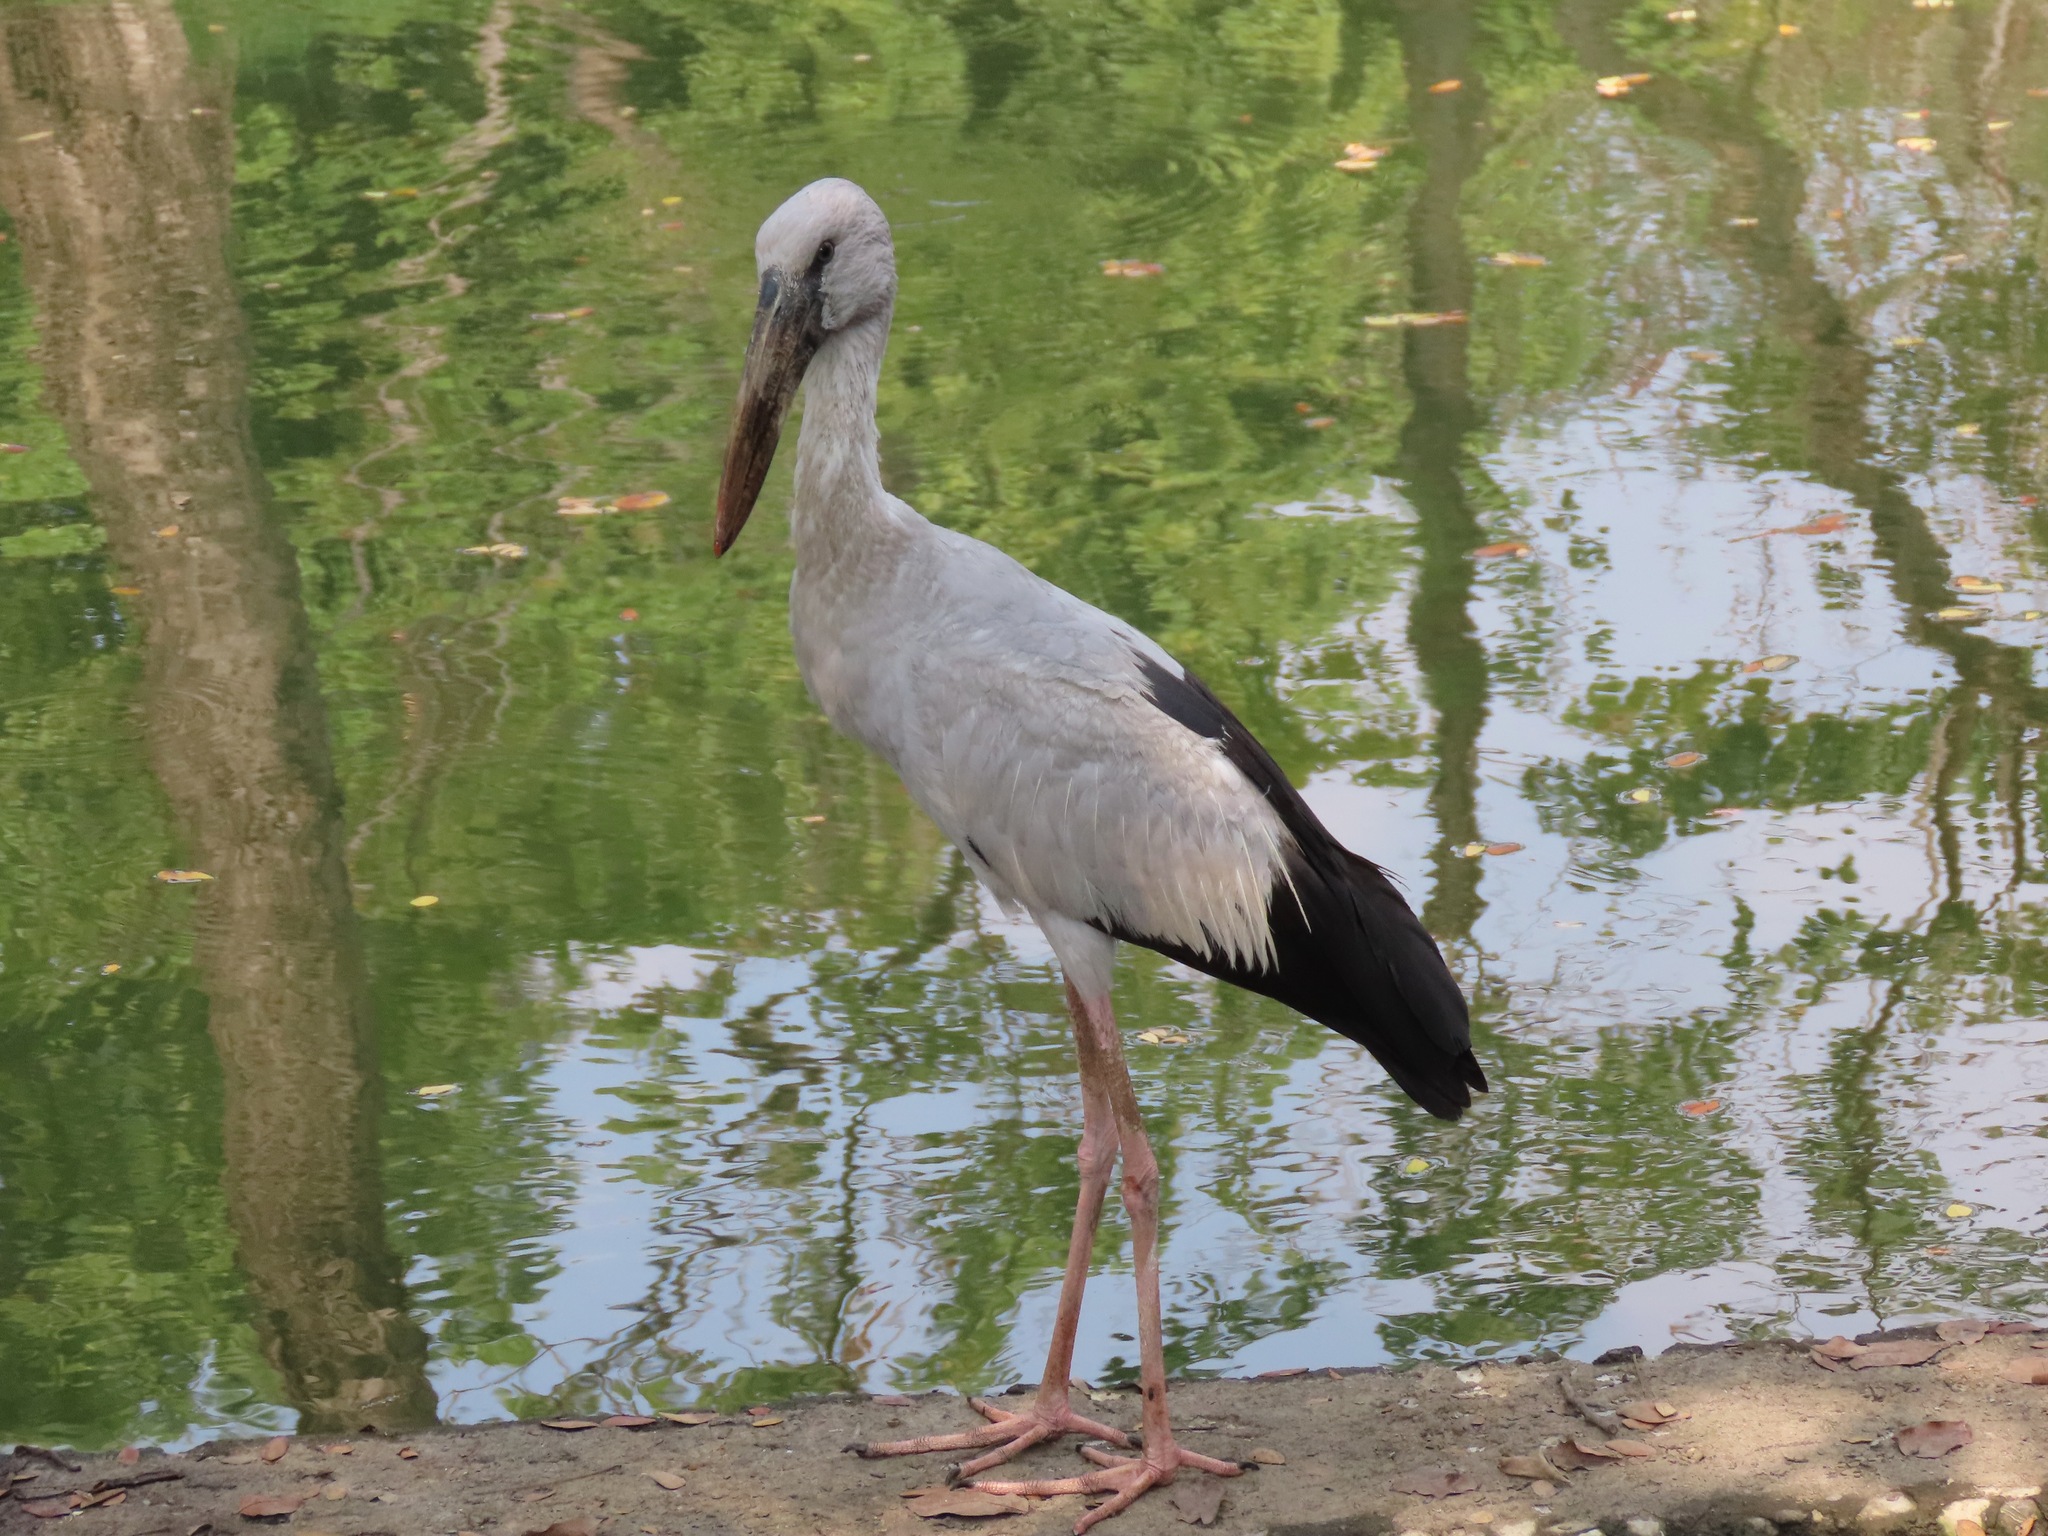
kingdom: Animalia
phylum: Chordata
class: Aves
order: Ciconiiformes
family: Ciconiidae
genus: Anastomus
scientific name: Anastomus oscitans
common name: Asian openbill
